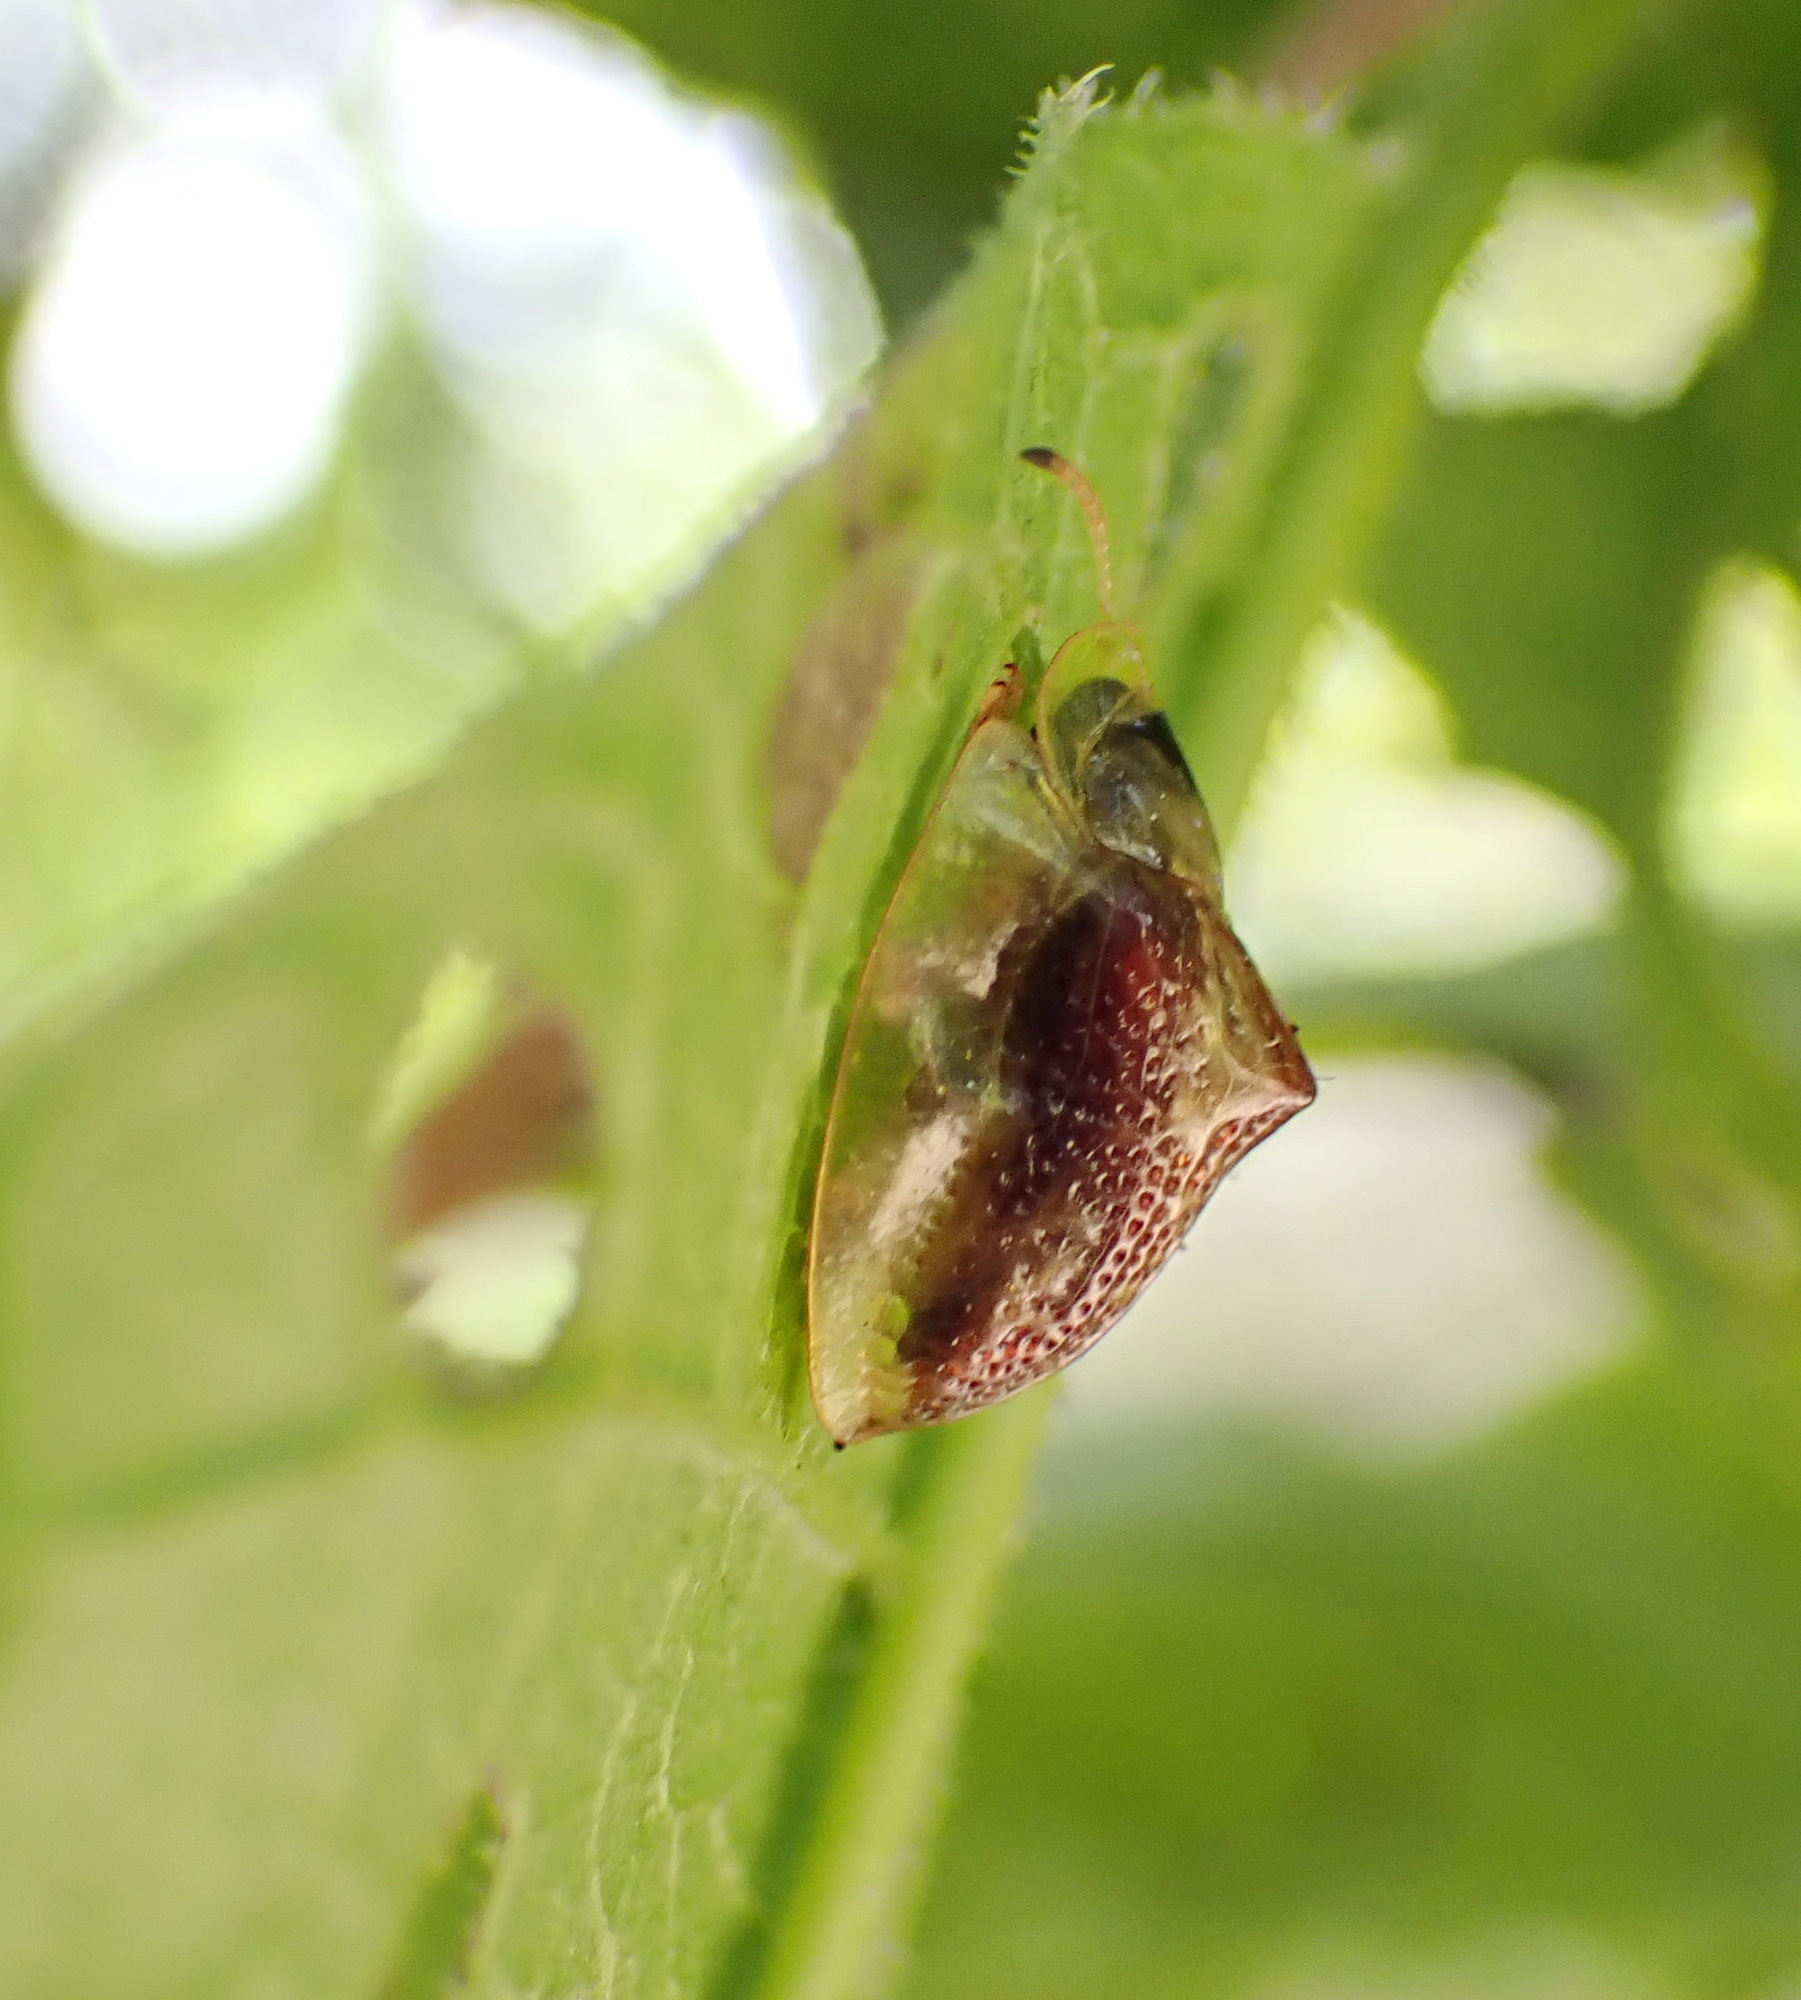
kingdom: Animalia
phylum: Arthropoda
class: Insecta
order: Coleoptera
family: Chrysomelidae
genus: Coptocycla
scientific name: Coptocycla texana
